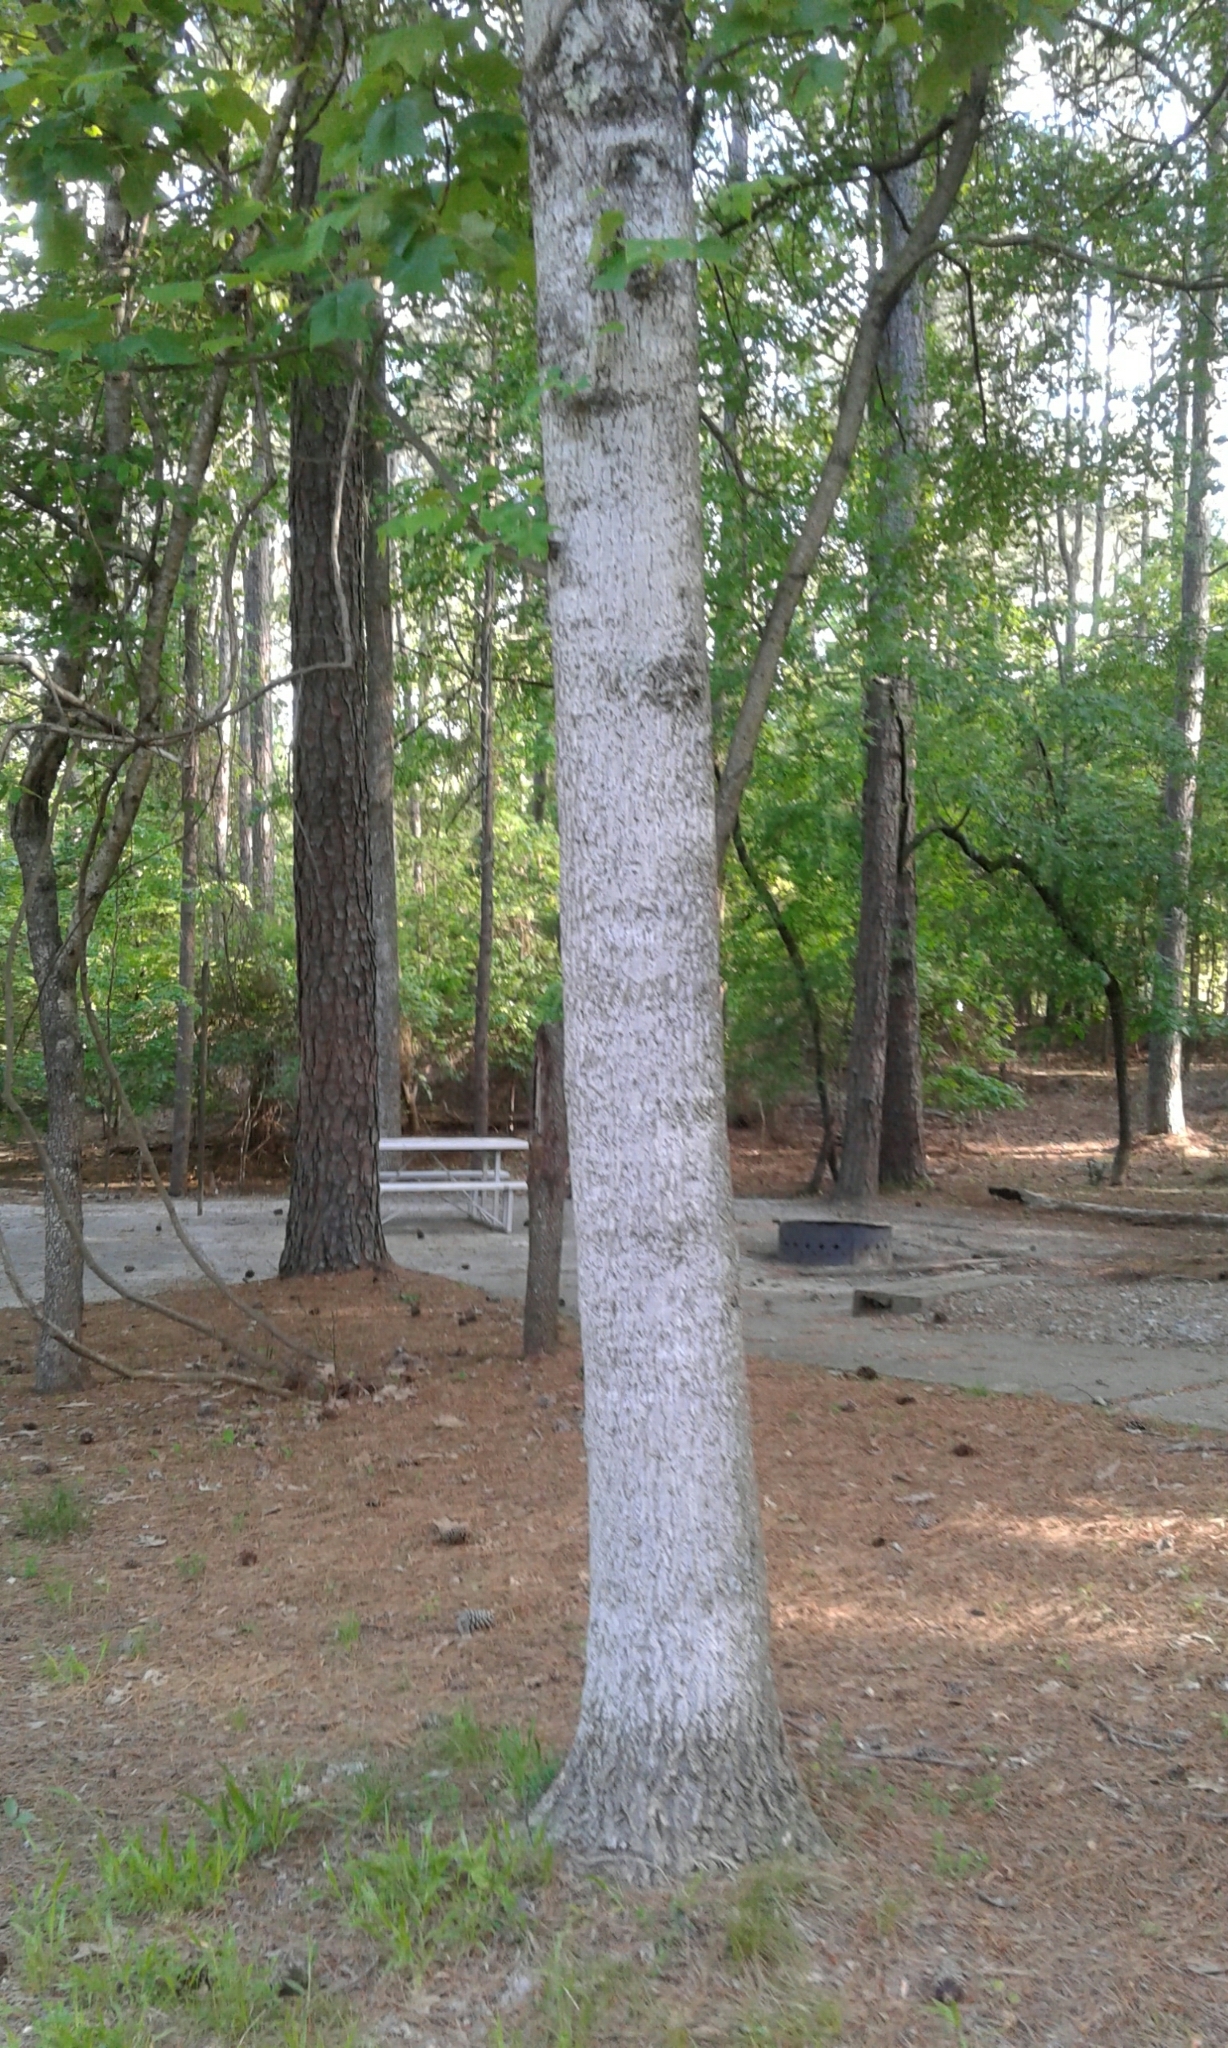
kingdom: Plantae
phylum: Tracheophyta
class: Magnoliopsida
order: Magnoliales
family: Magnoliaceae
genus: Liriodendron
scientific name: Liriodendron tulipifera
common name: Tulip tree
